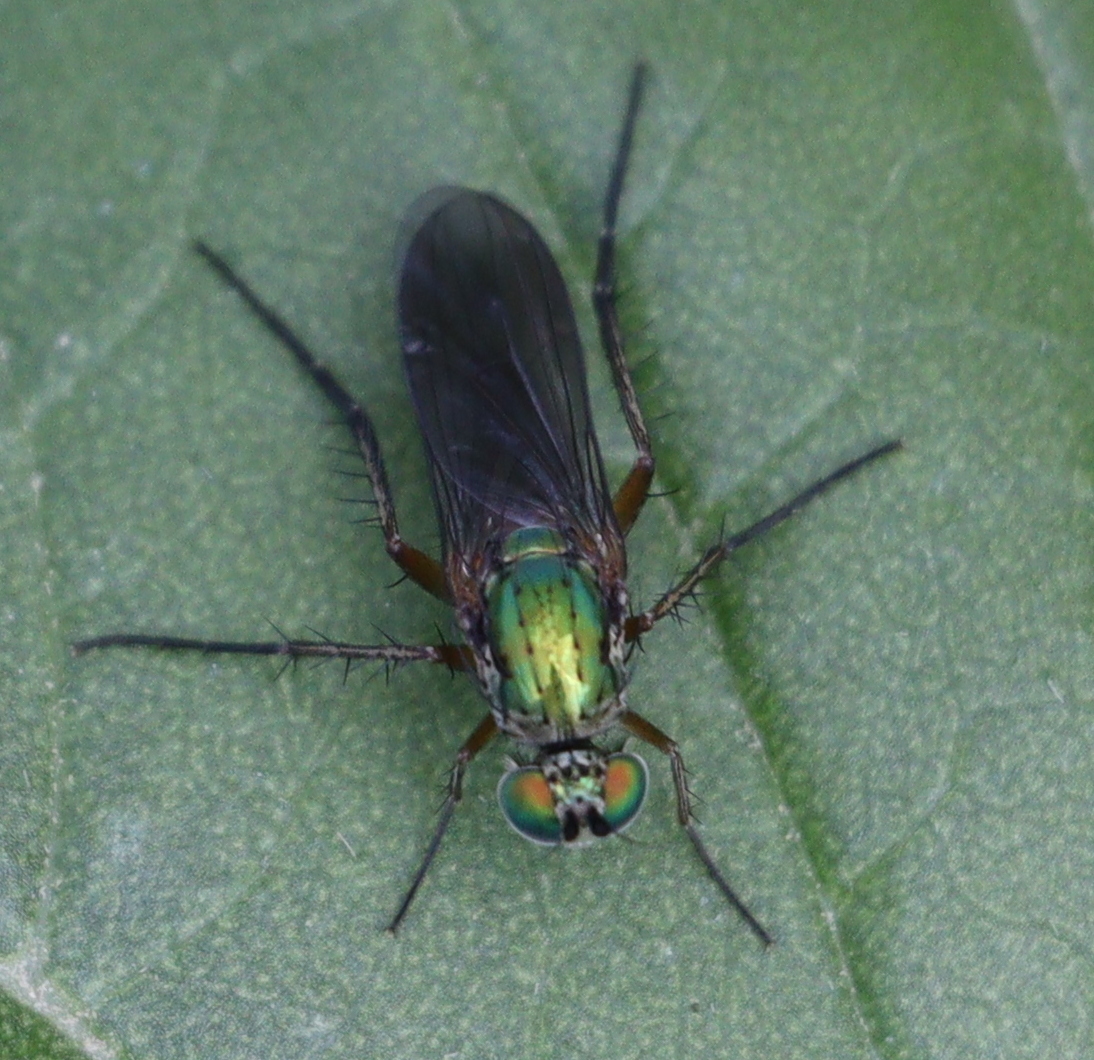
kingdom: Animalia
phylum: Arthropoda
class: Insecta
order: Diptera
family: Dolichopodidae
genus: Poecilobothrus
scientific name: Poecilobothrus nobilitatus
